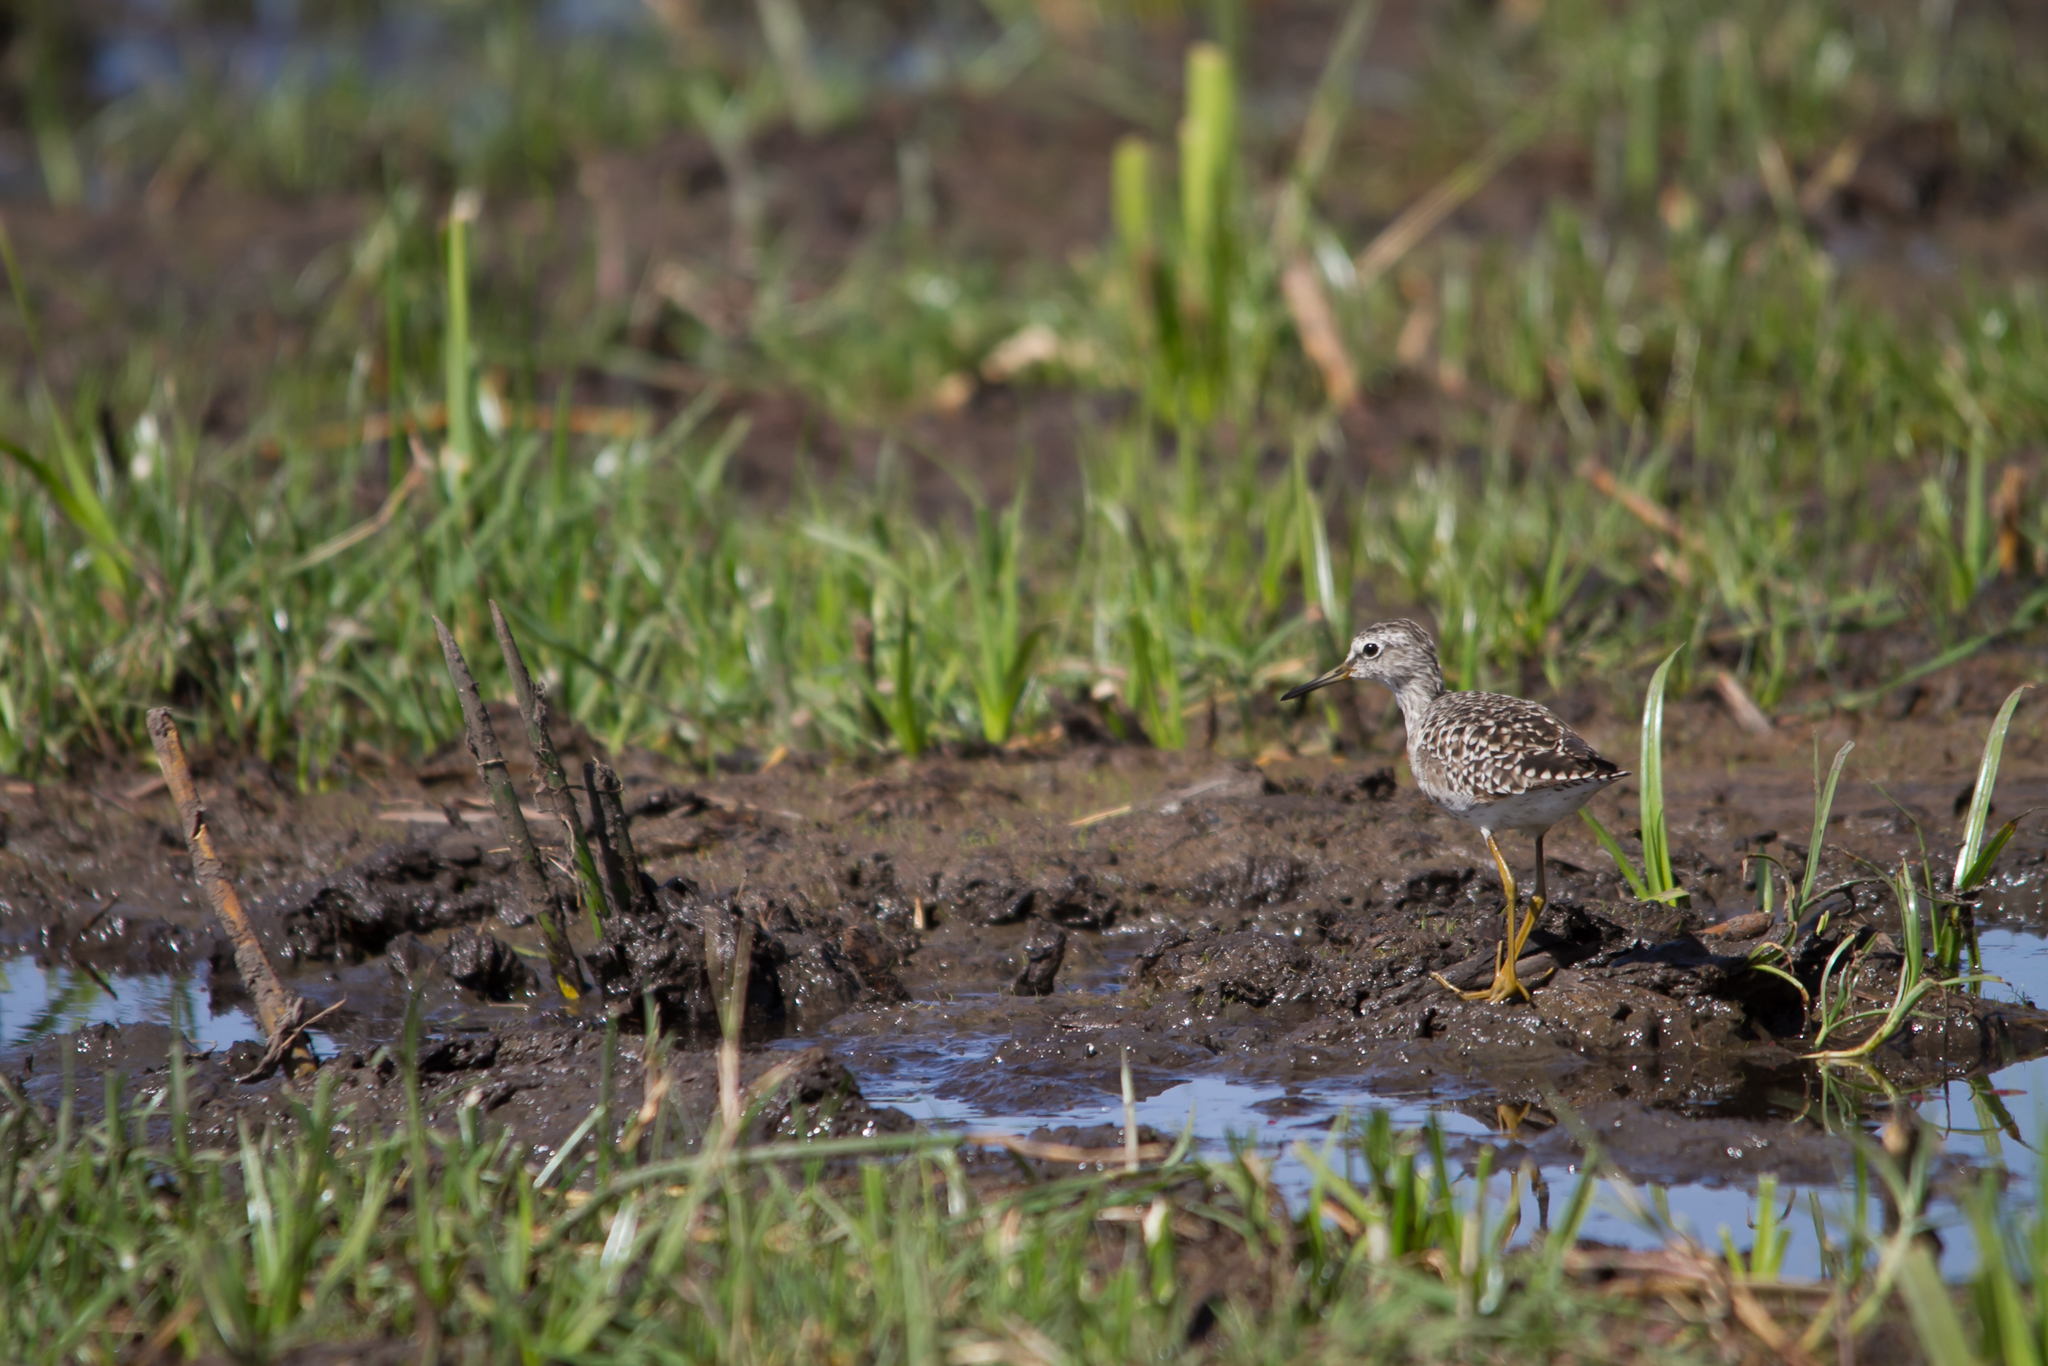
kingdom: Animalia
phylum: Chordata
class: Aves
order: Charadriiformes
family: Scolopacidae
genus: Tringa
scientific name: Tringa glareola
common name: Wood sandpiper
